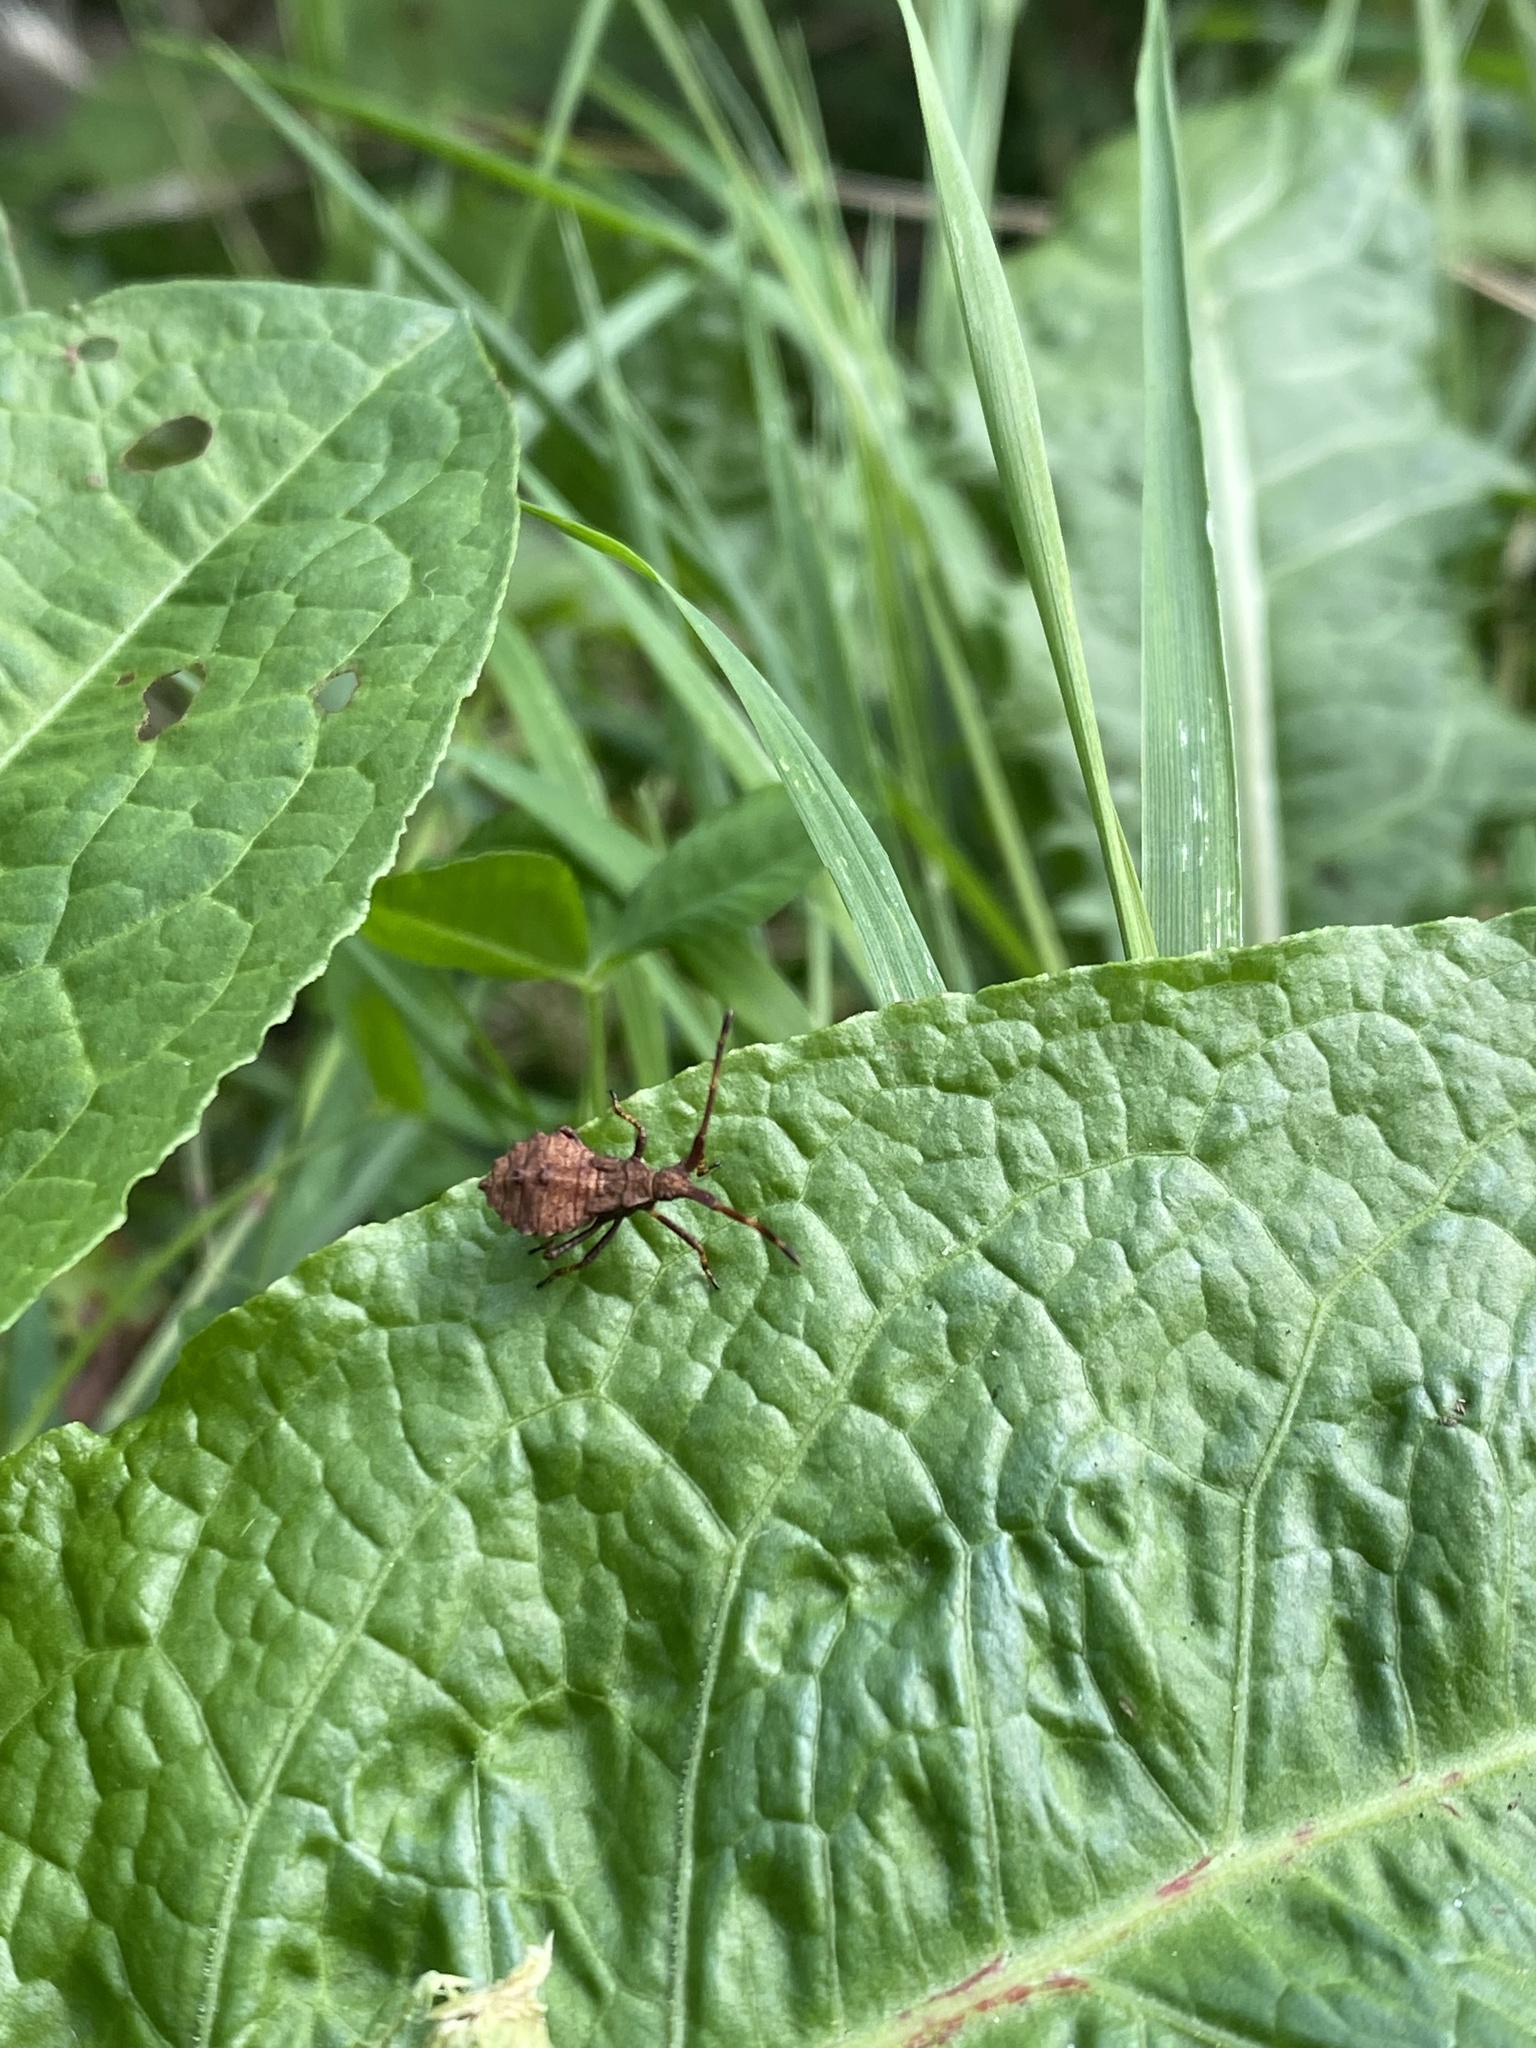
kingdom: Animalia
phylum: Arthropoda
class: Insecta
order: Hemiptera
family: Coreidae
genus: Coreus
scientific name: Coreus marginatus
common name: Dock bug
